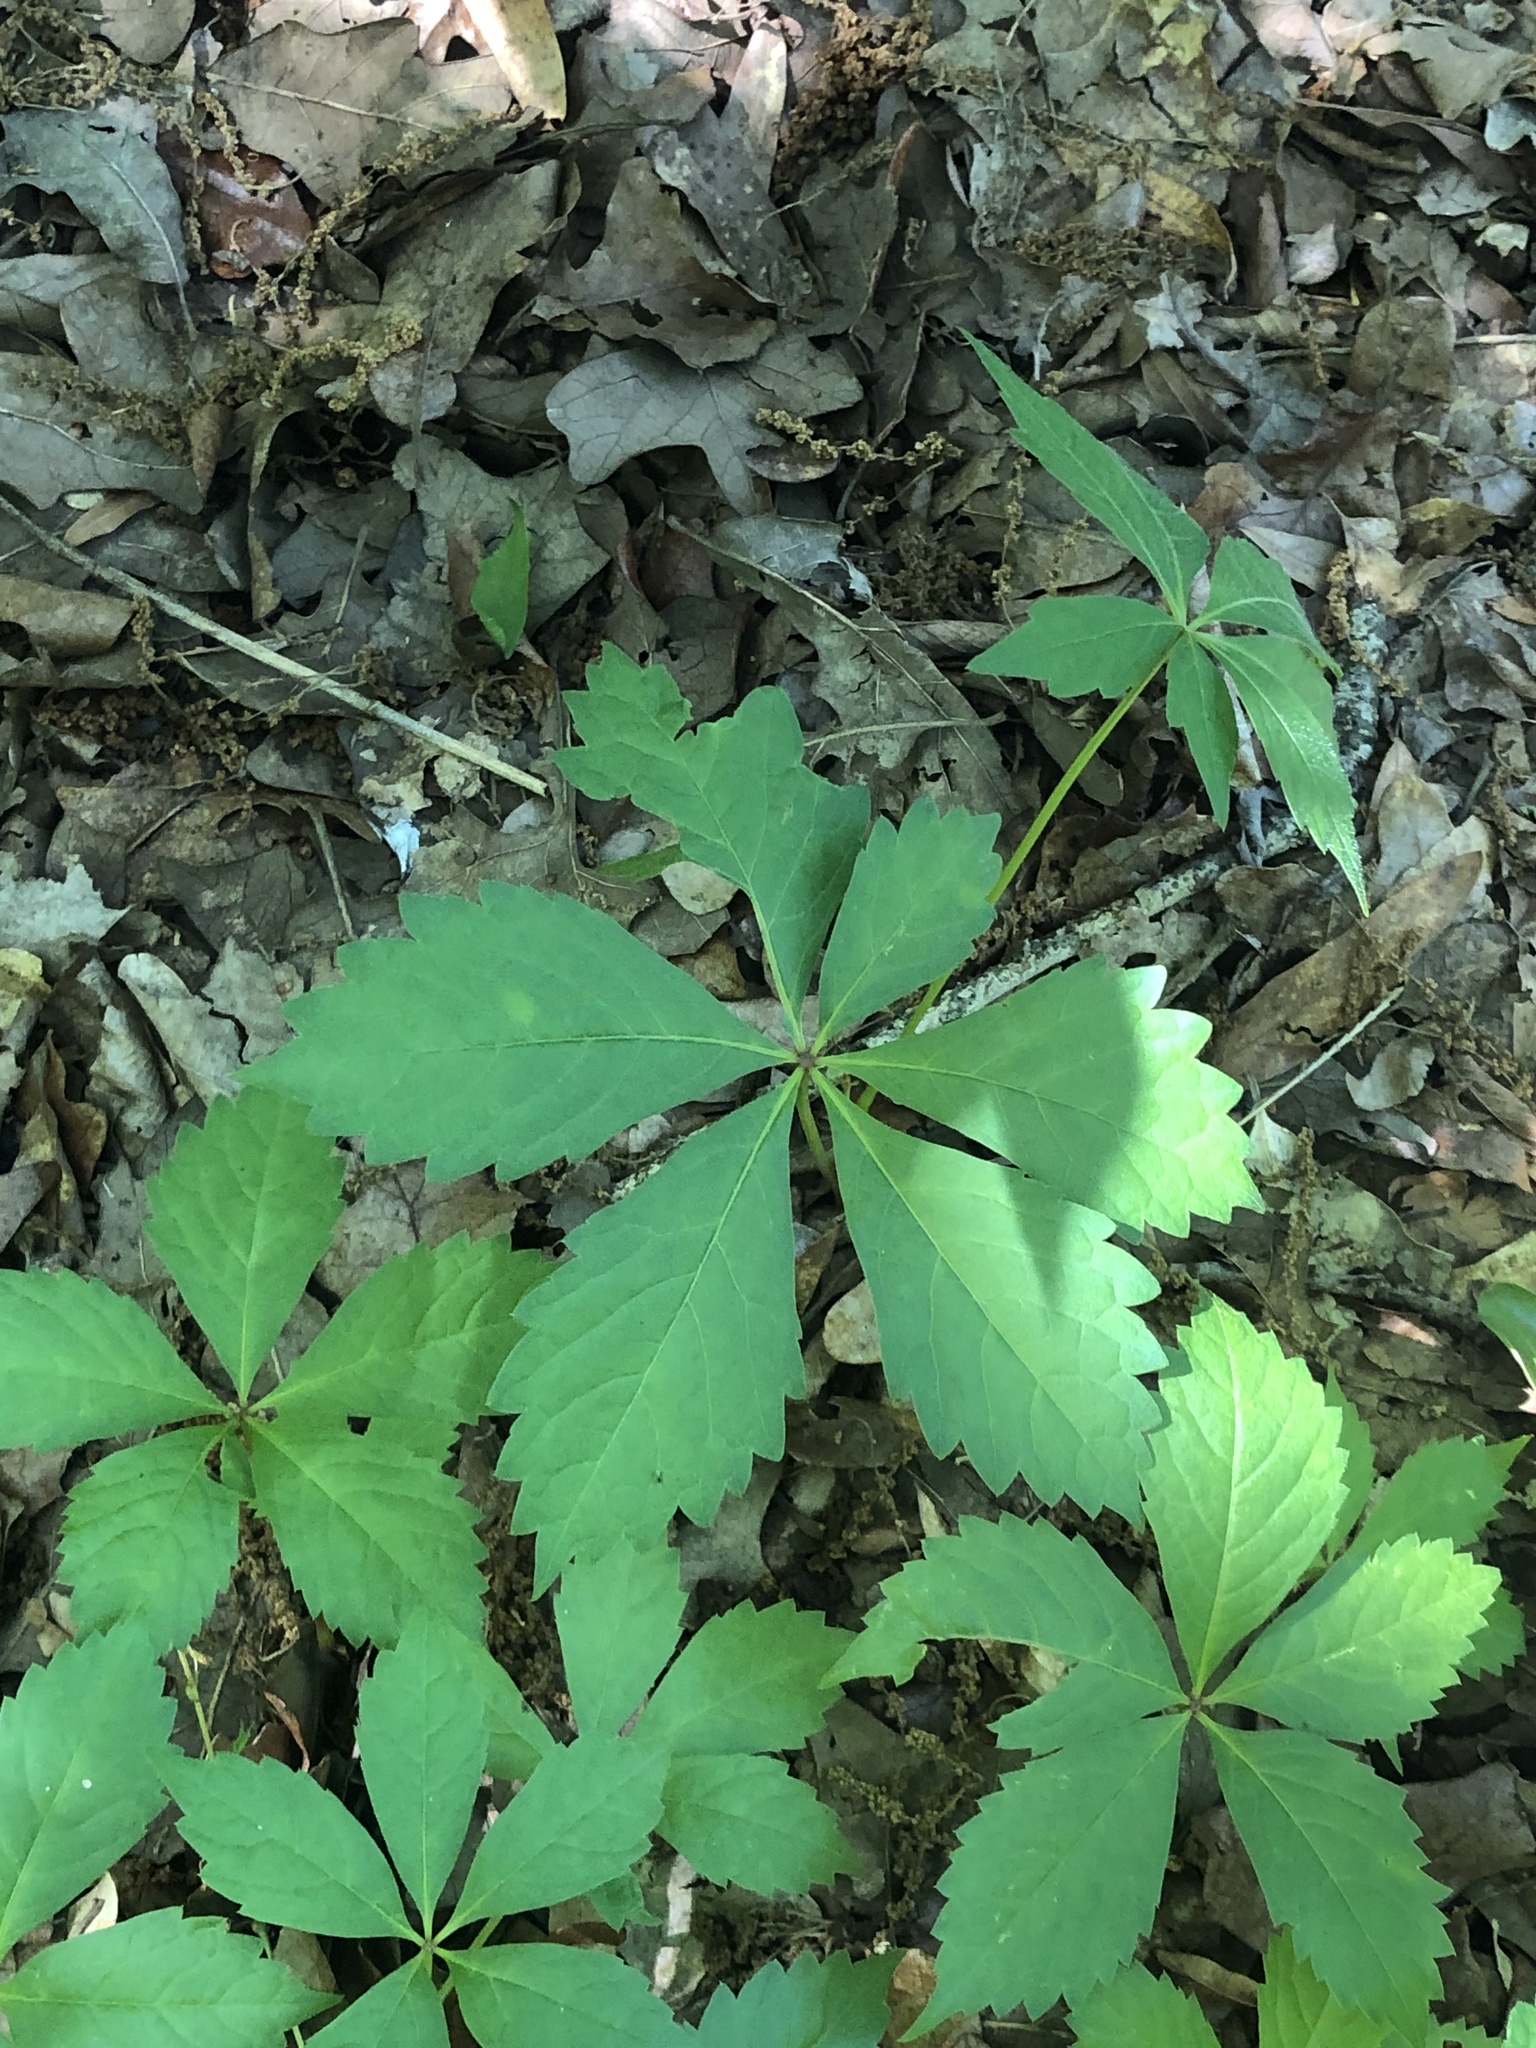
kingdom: Plantae
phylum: Tracheophyta
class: Magnoliopsida
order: Vitales
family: Vitaceae
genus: Parthenocissus
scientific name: Parthenocissus quinquefolia
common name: Virginia-creeper
